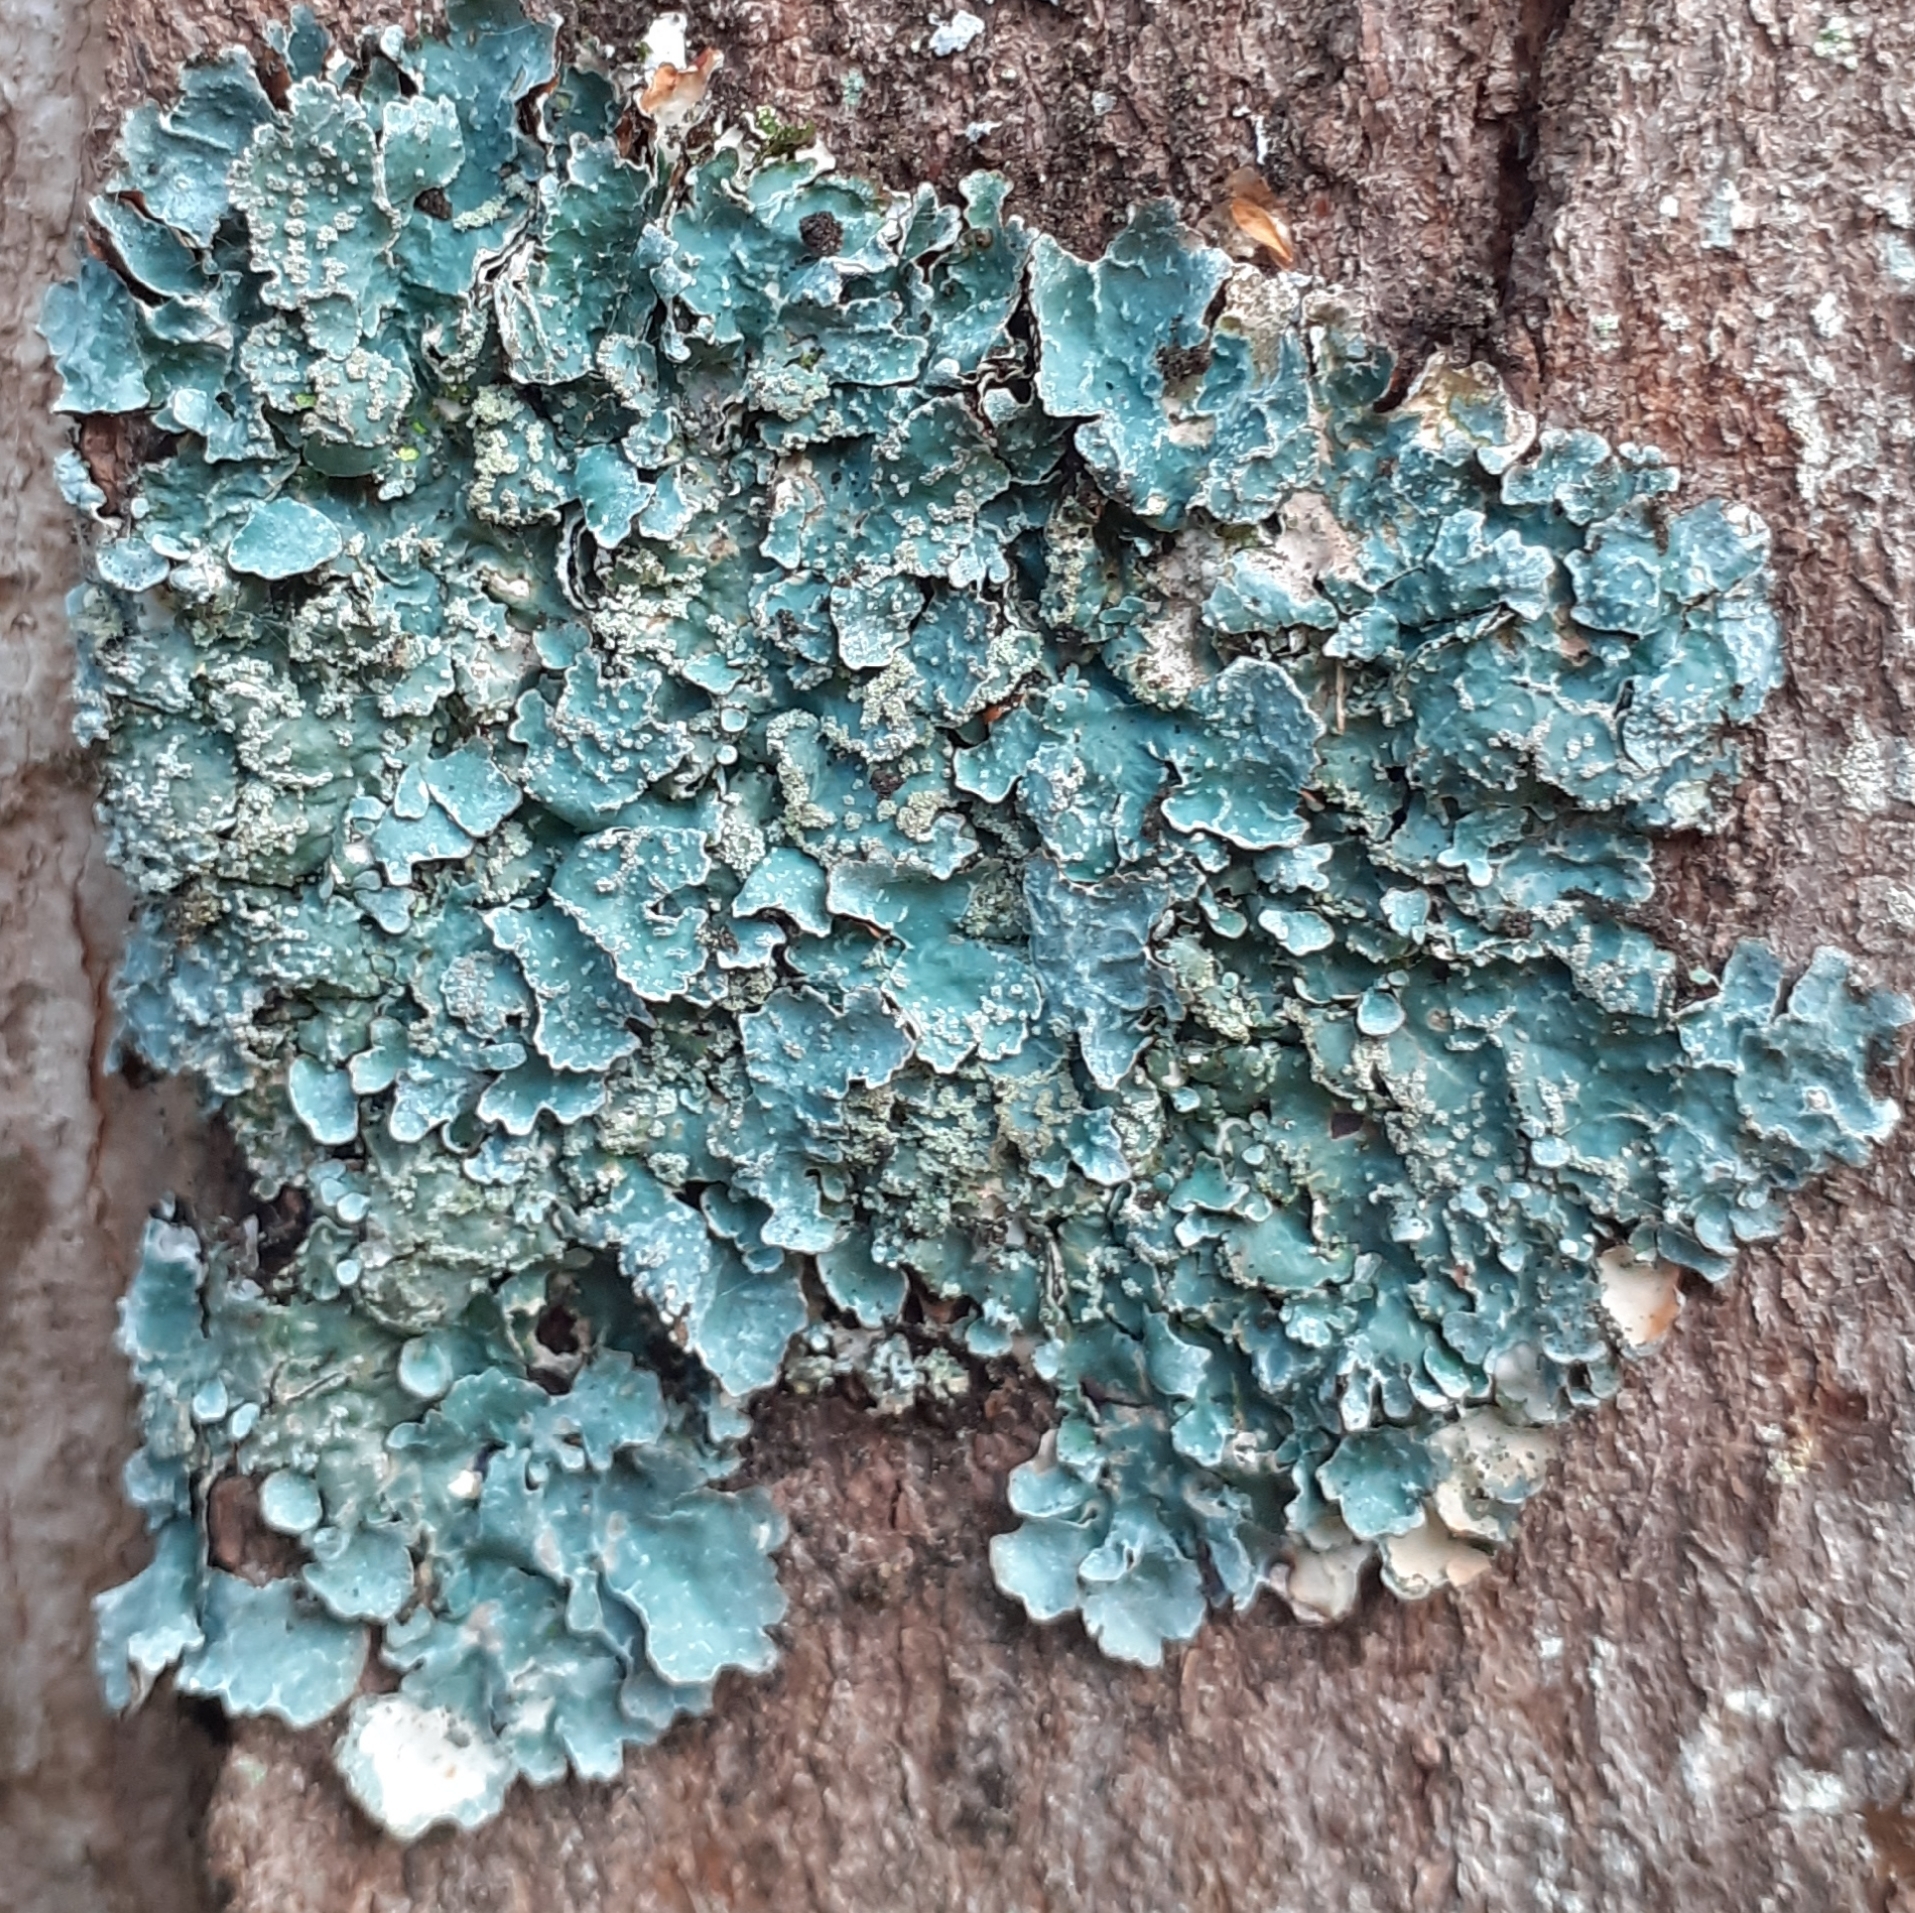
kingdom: Fungi
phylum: Ascomycota
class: Lecanoromycetes
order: Lecanorales
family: Parmeliaceae
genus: Parmelia
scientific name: Parmelia sulcata
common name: Netted shield lichen
